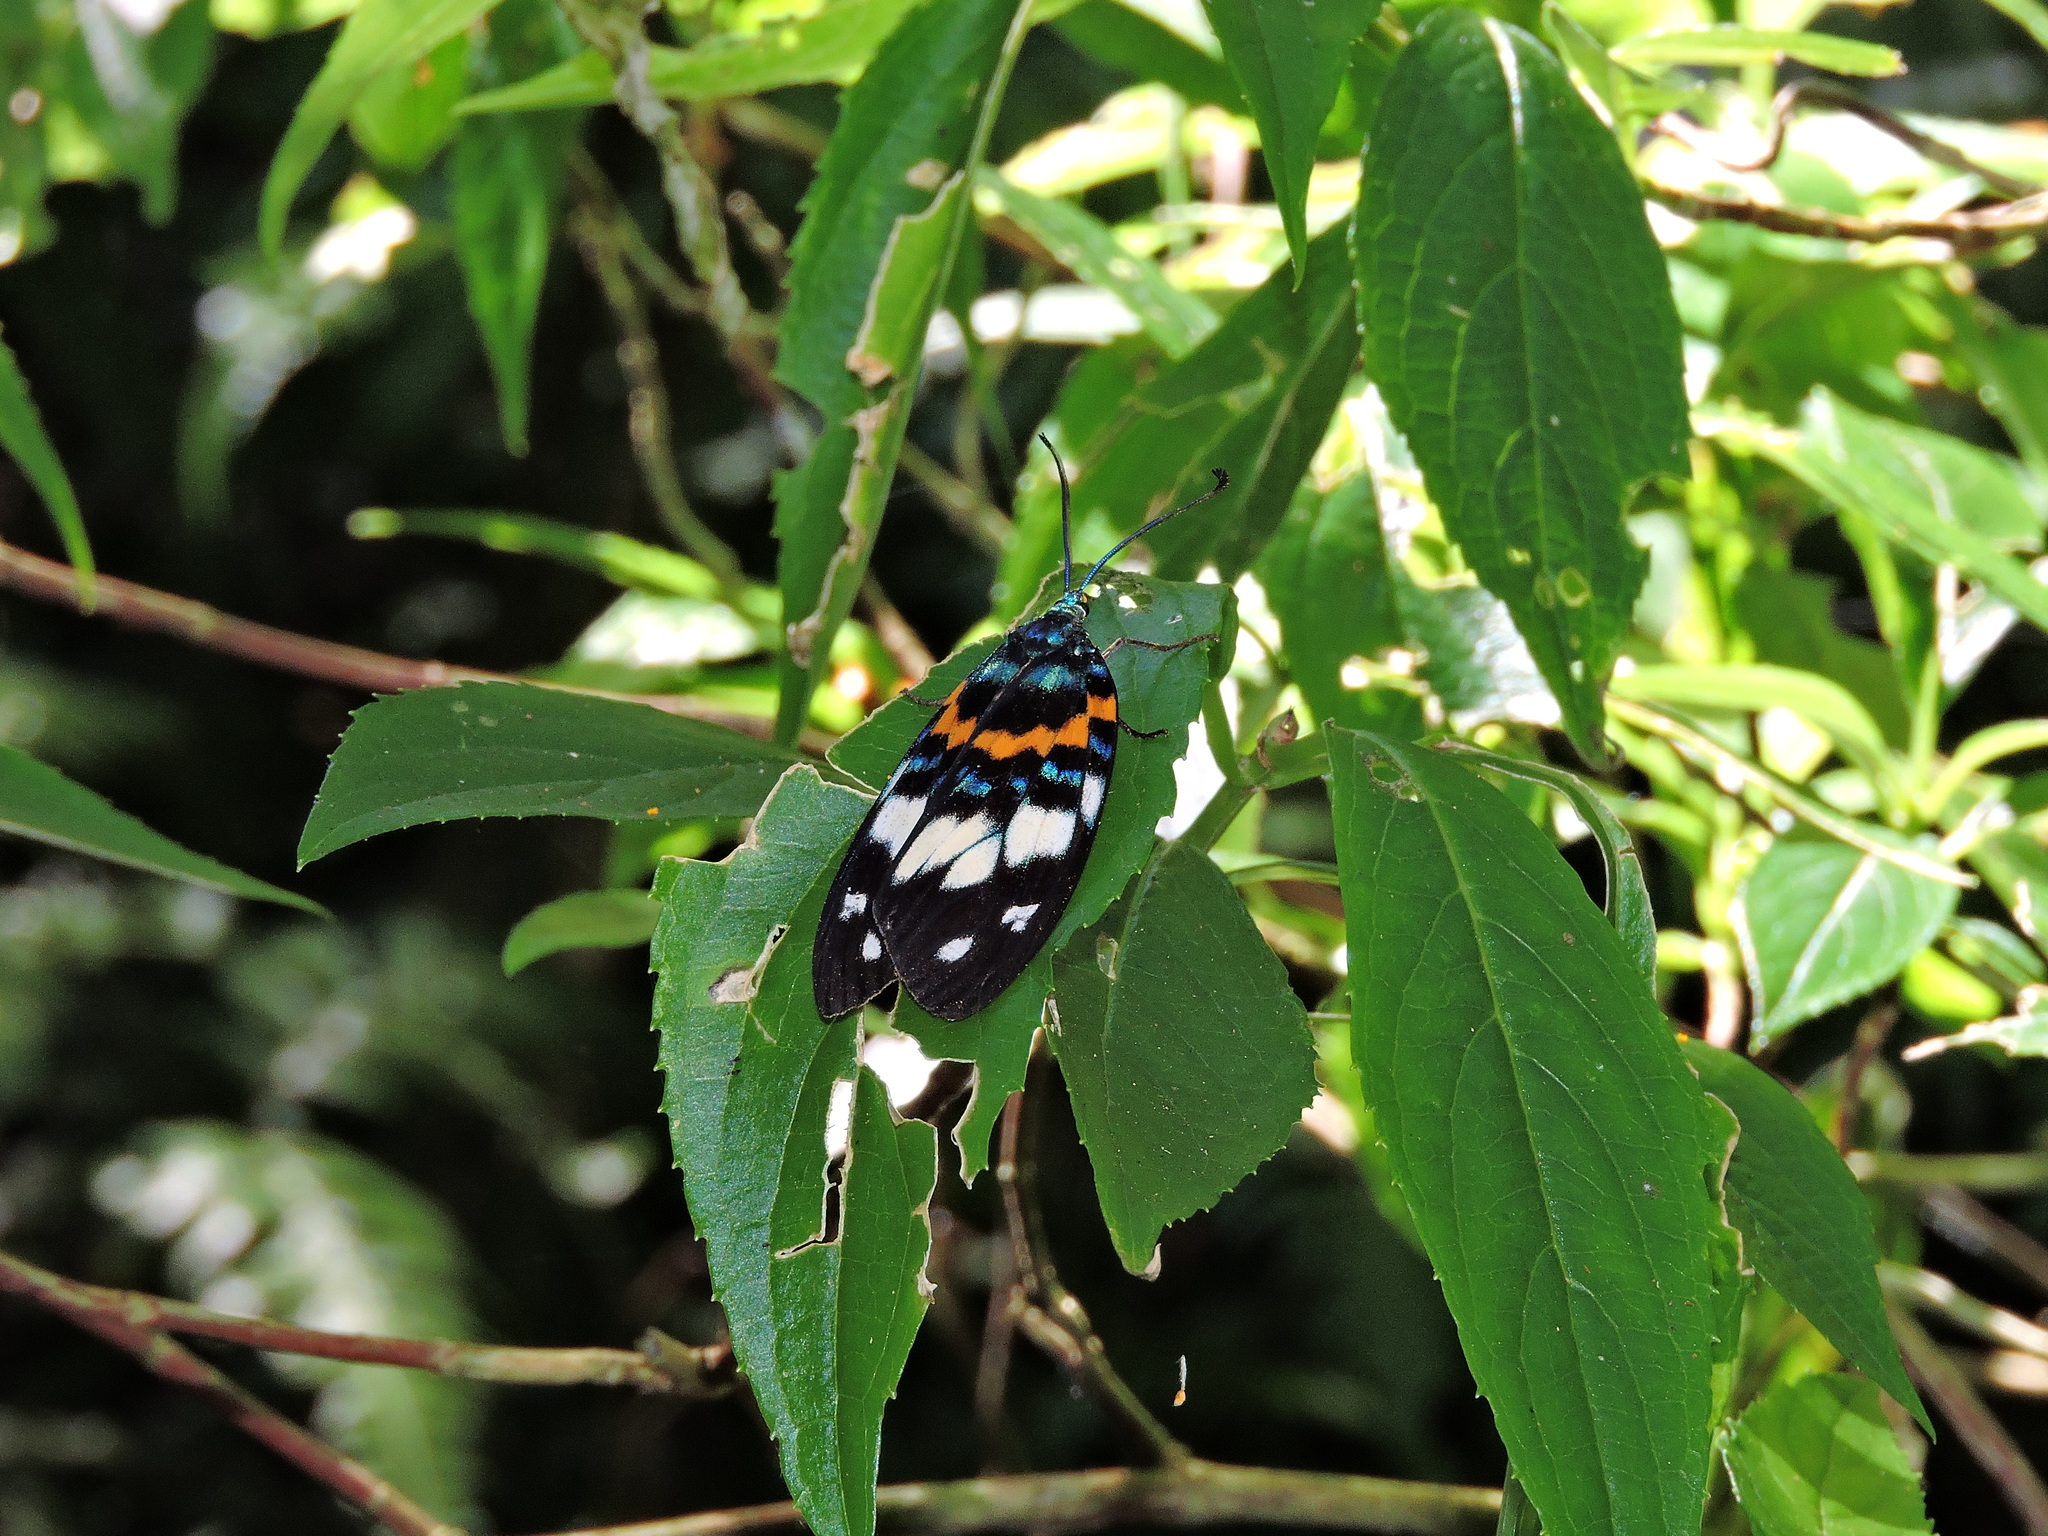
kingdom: Animalia
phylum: Arthropoda
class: Insecta
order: Lepidoptera
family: Zygaenidae
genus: Erasmia
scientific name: Erasmia pulchella
